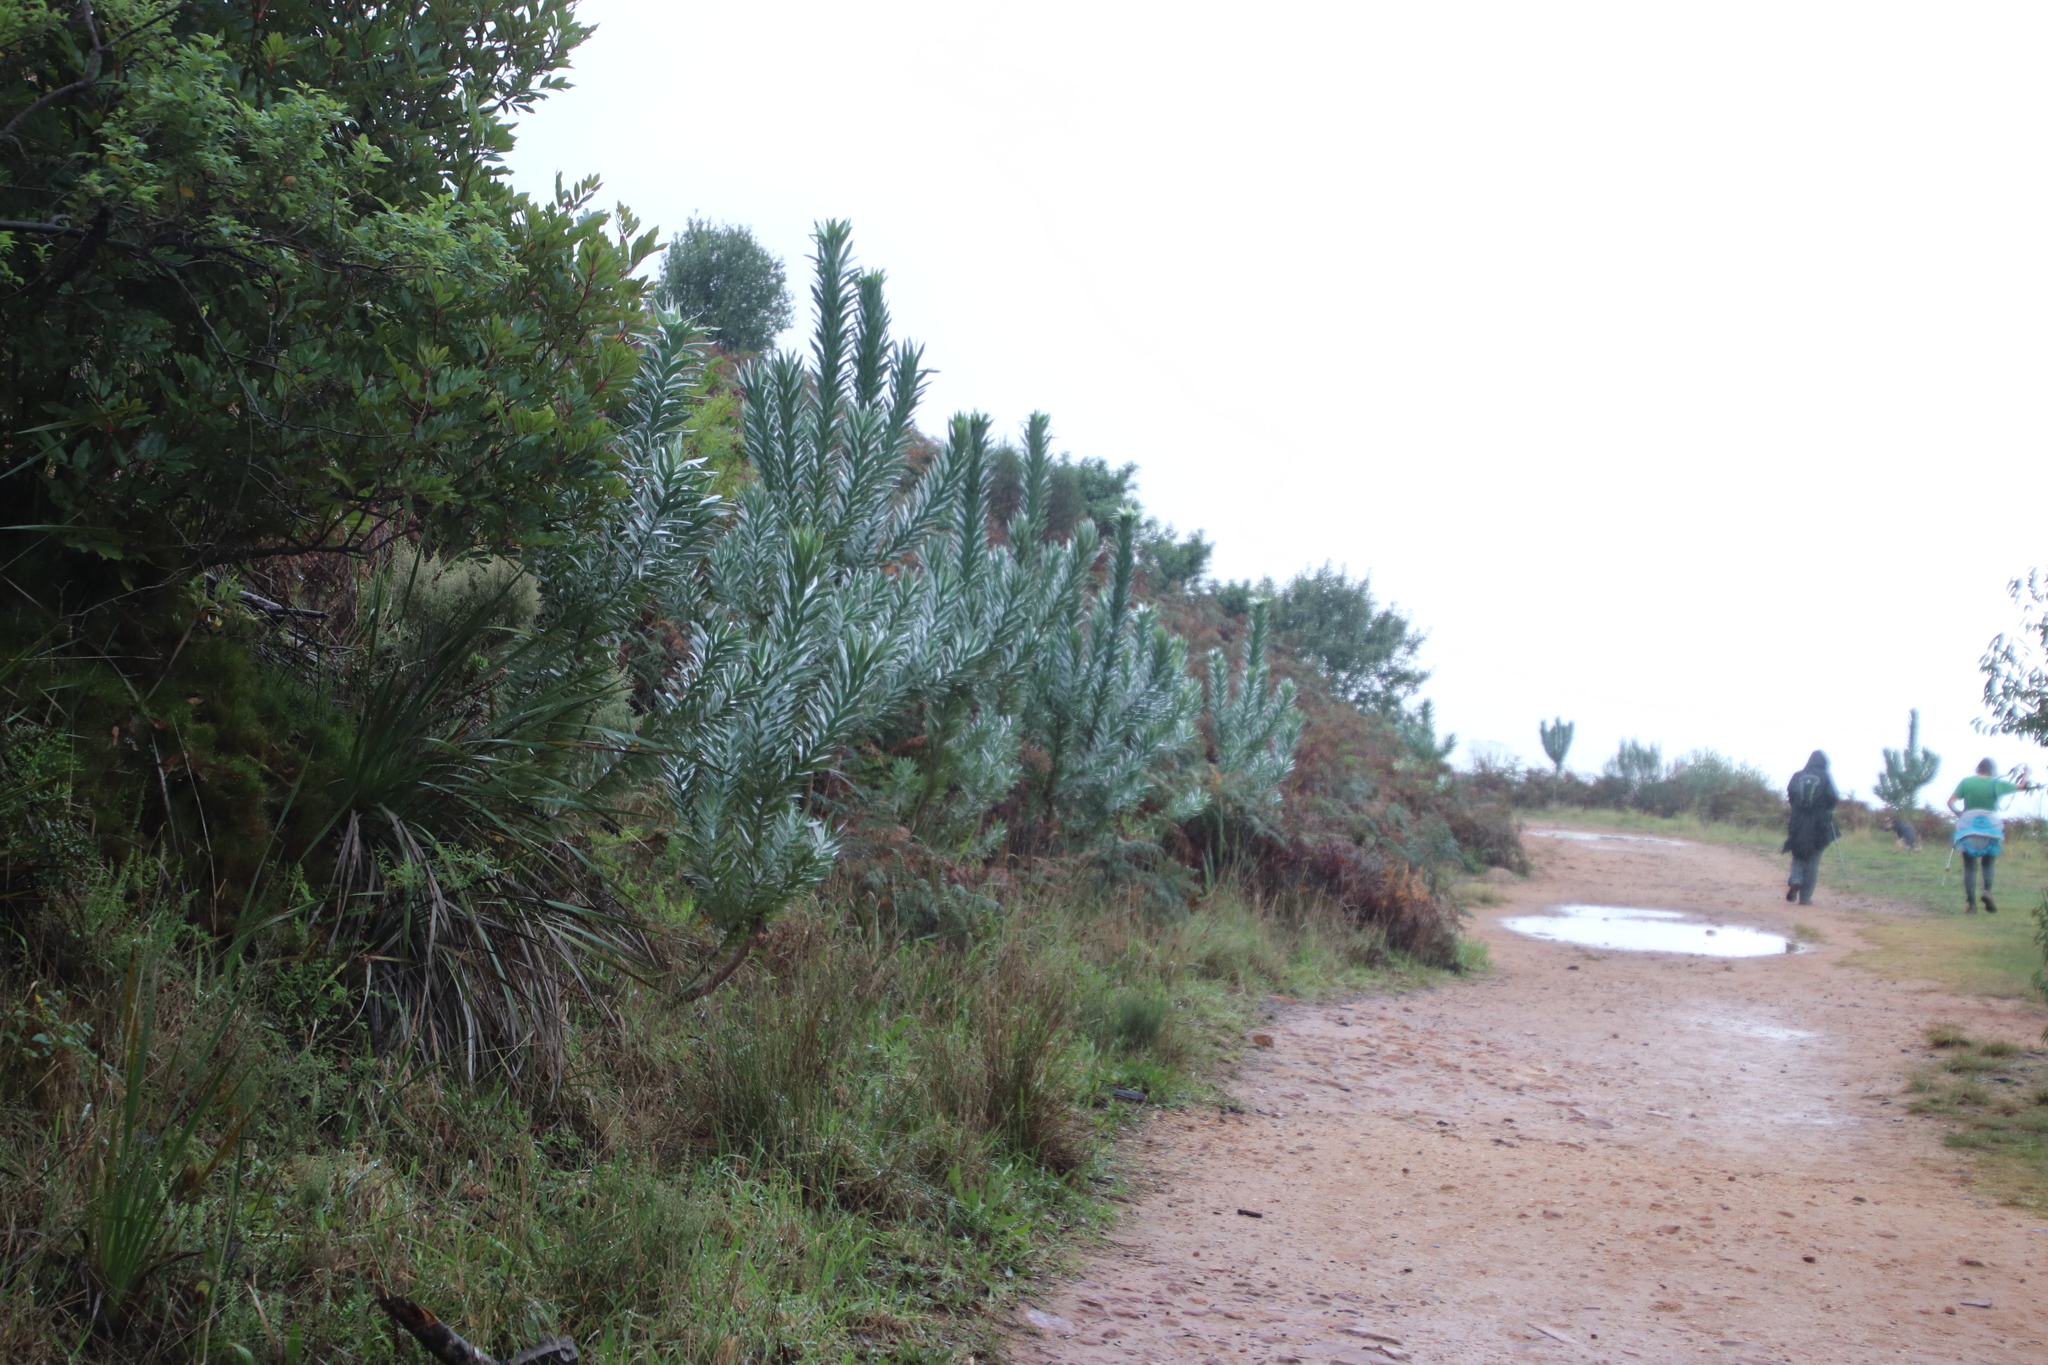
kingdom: Plantae
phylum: Tracheophyta
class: Magnoliopsida
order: Proteales
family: Proteaceae
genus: Leucadendron
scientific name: Leucadendron argenteum
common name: Cape silver tree
